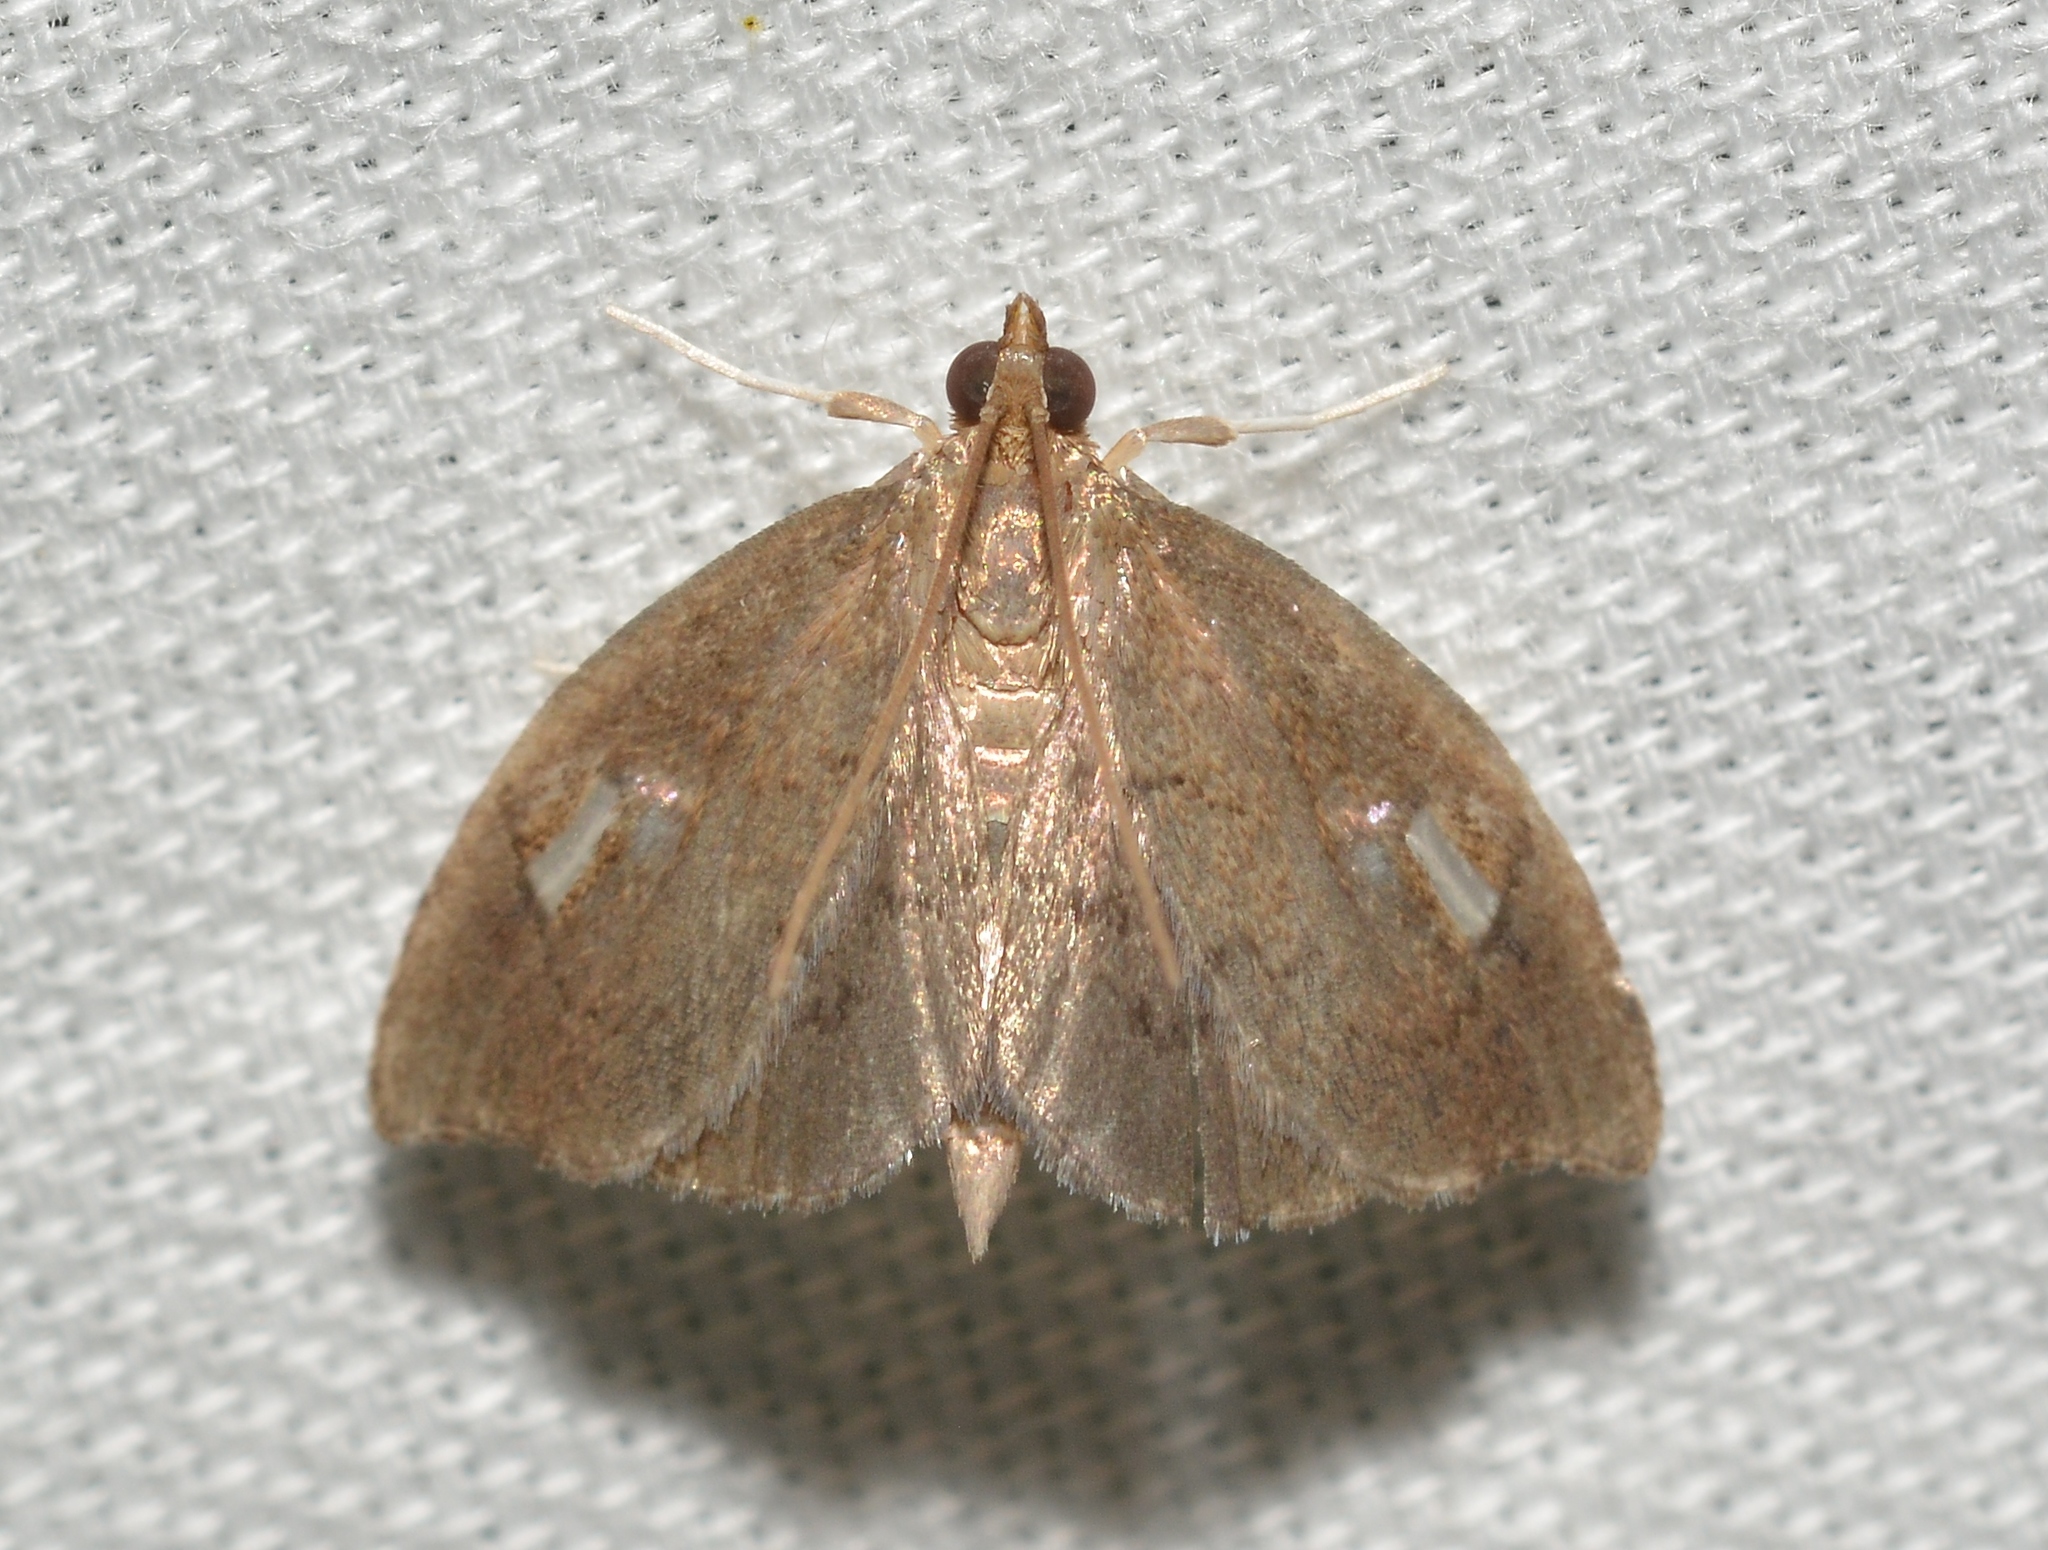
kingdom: Animalia
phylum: Arthropoda
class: Insecta
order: Lepidoptera
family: Crambidae
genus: Perispasta
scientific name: Perispasta caeculalis
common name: Titian peale's moth
